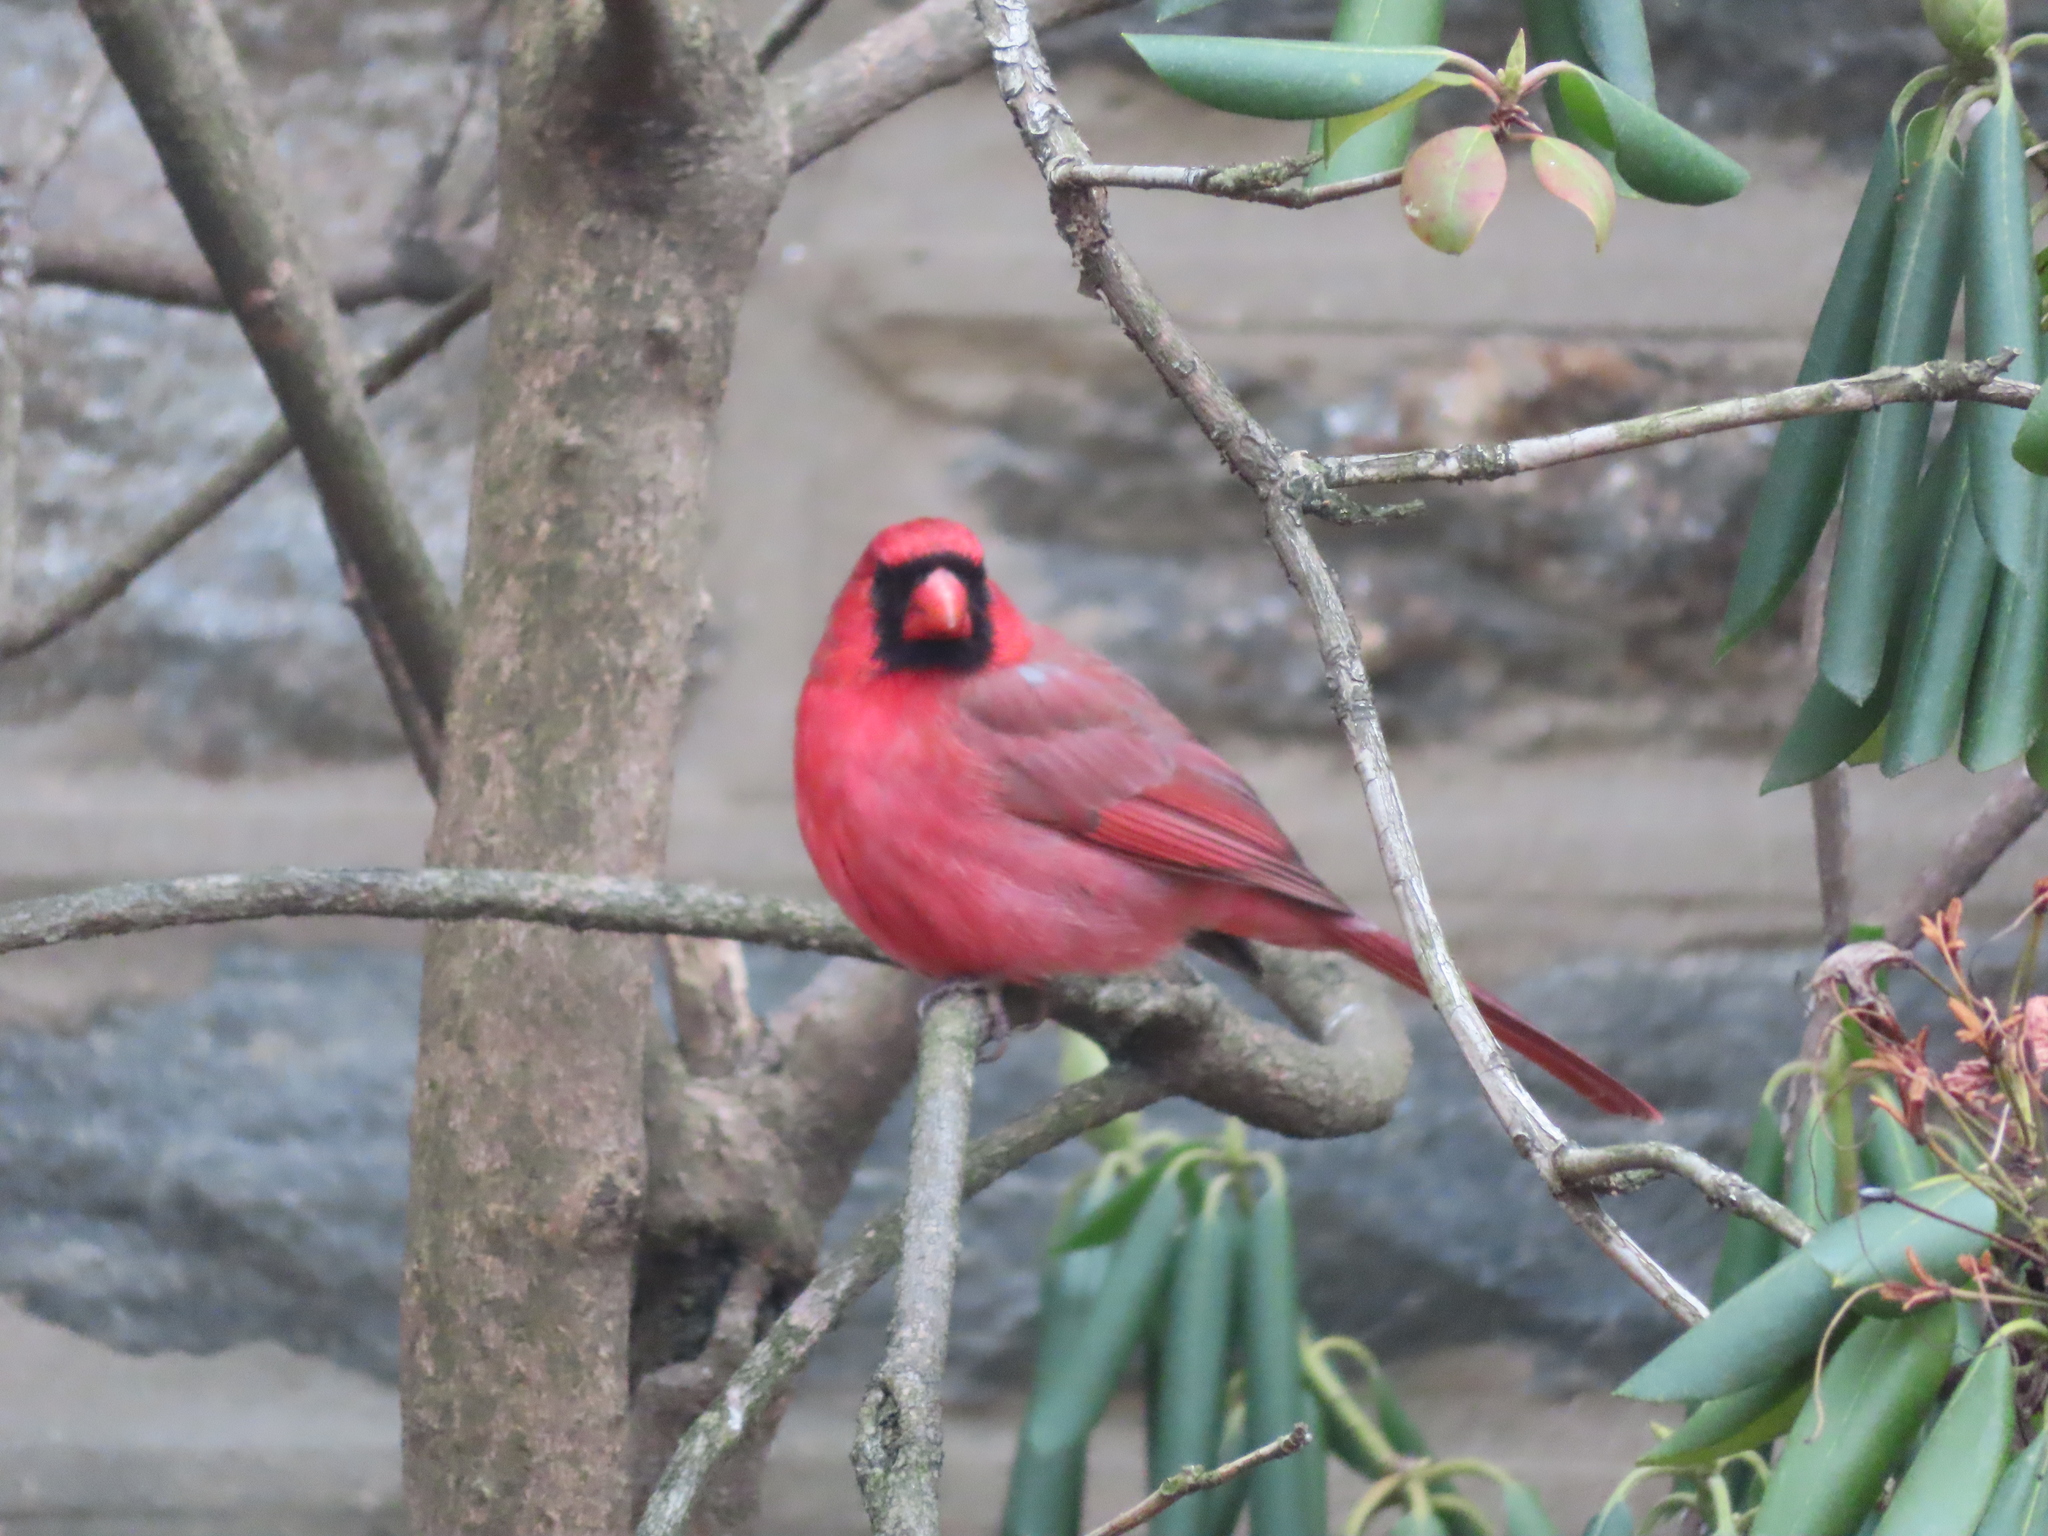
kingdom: Animalia
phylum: Chordata
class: Aves
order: Passeriformes
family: Cardinalidae
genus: Cardinalis
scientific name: Cardinalis cardinalis
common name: Northern cardinal
